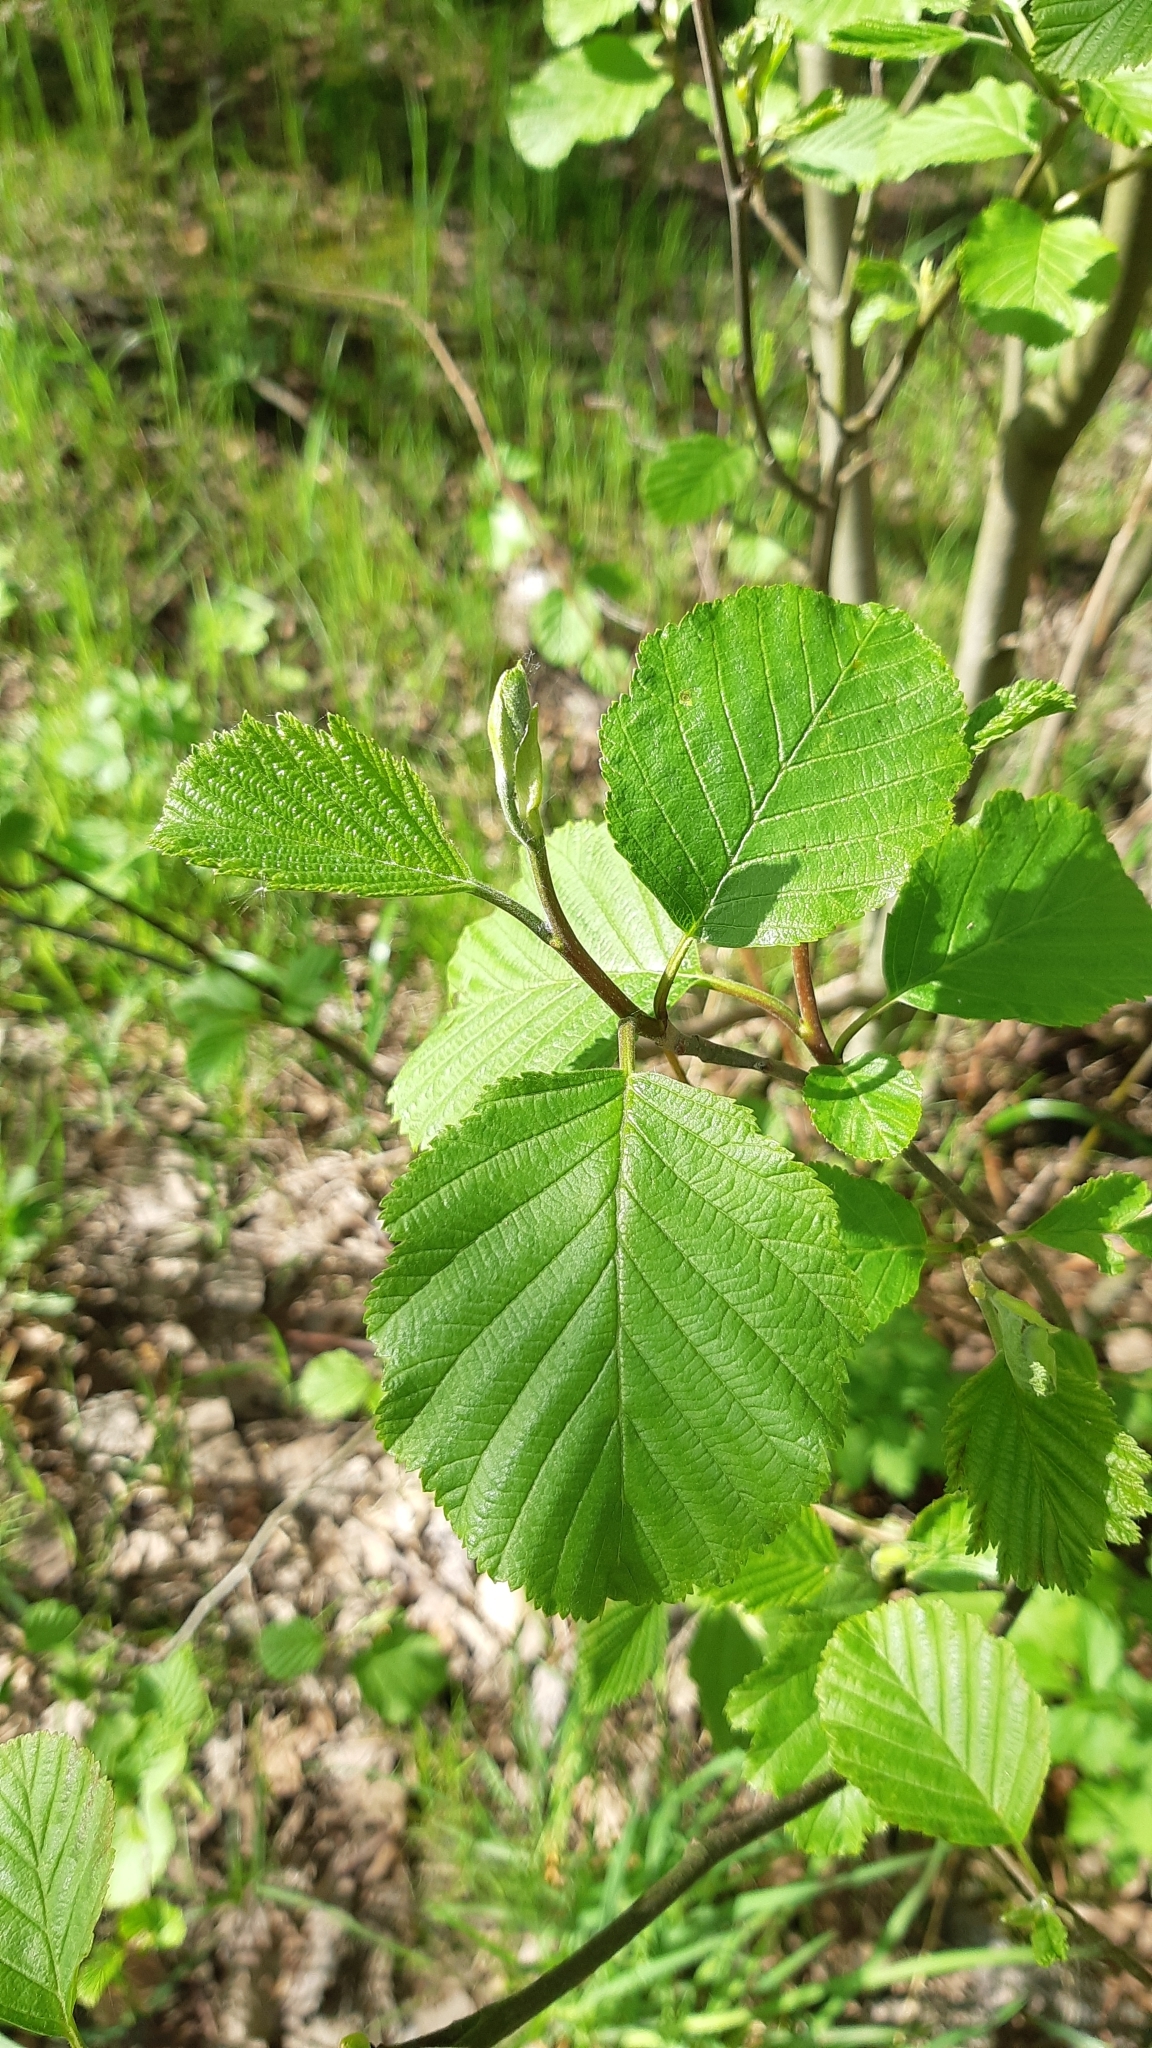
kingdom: Plantae
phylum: Tracheophyta
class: Magnoliopsida
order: Fagales
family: Betulaceae
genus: Alnus
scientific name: Alnus glutinosa
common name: Black alder
